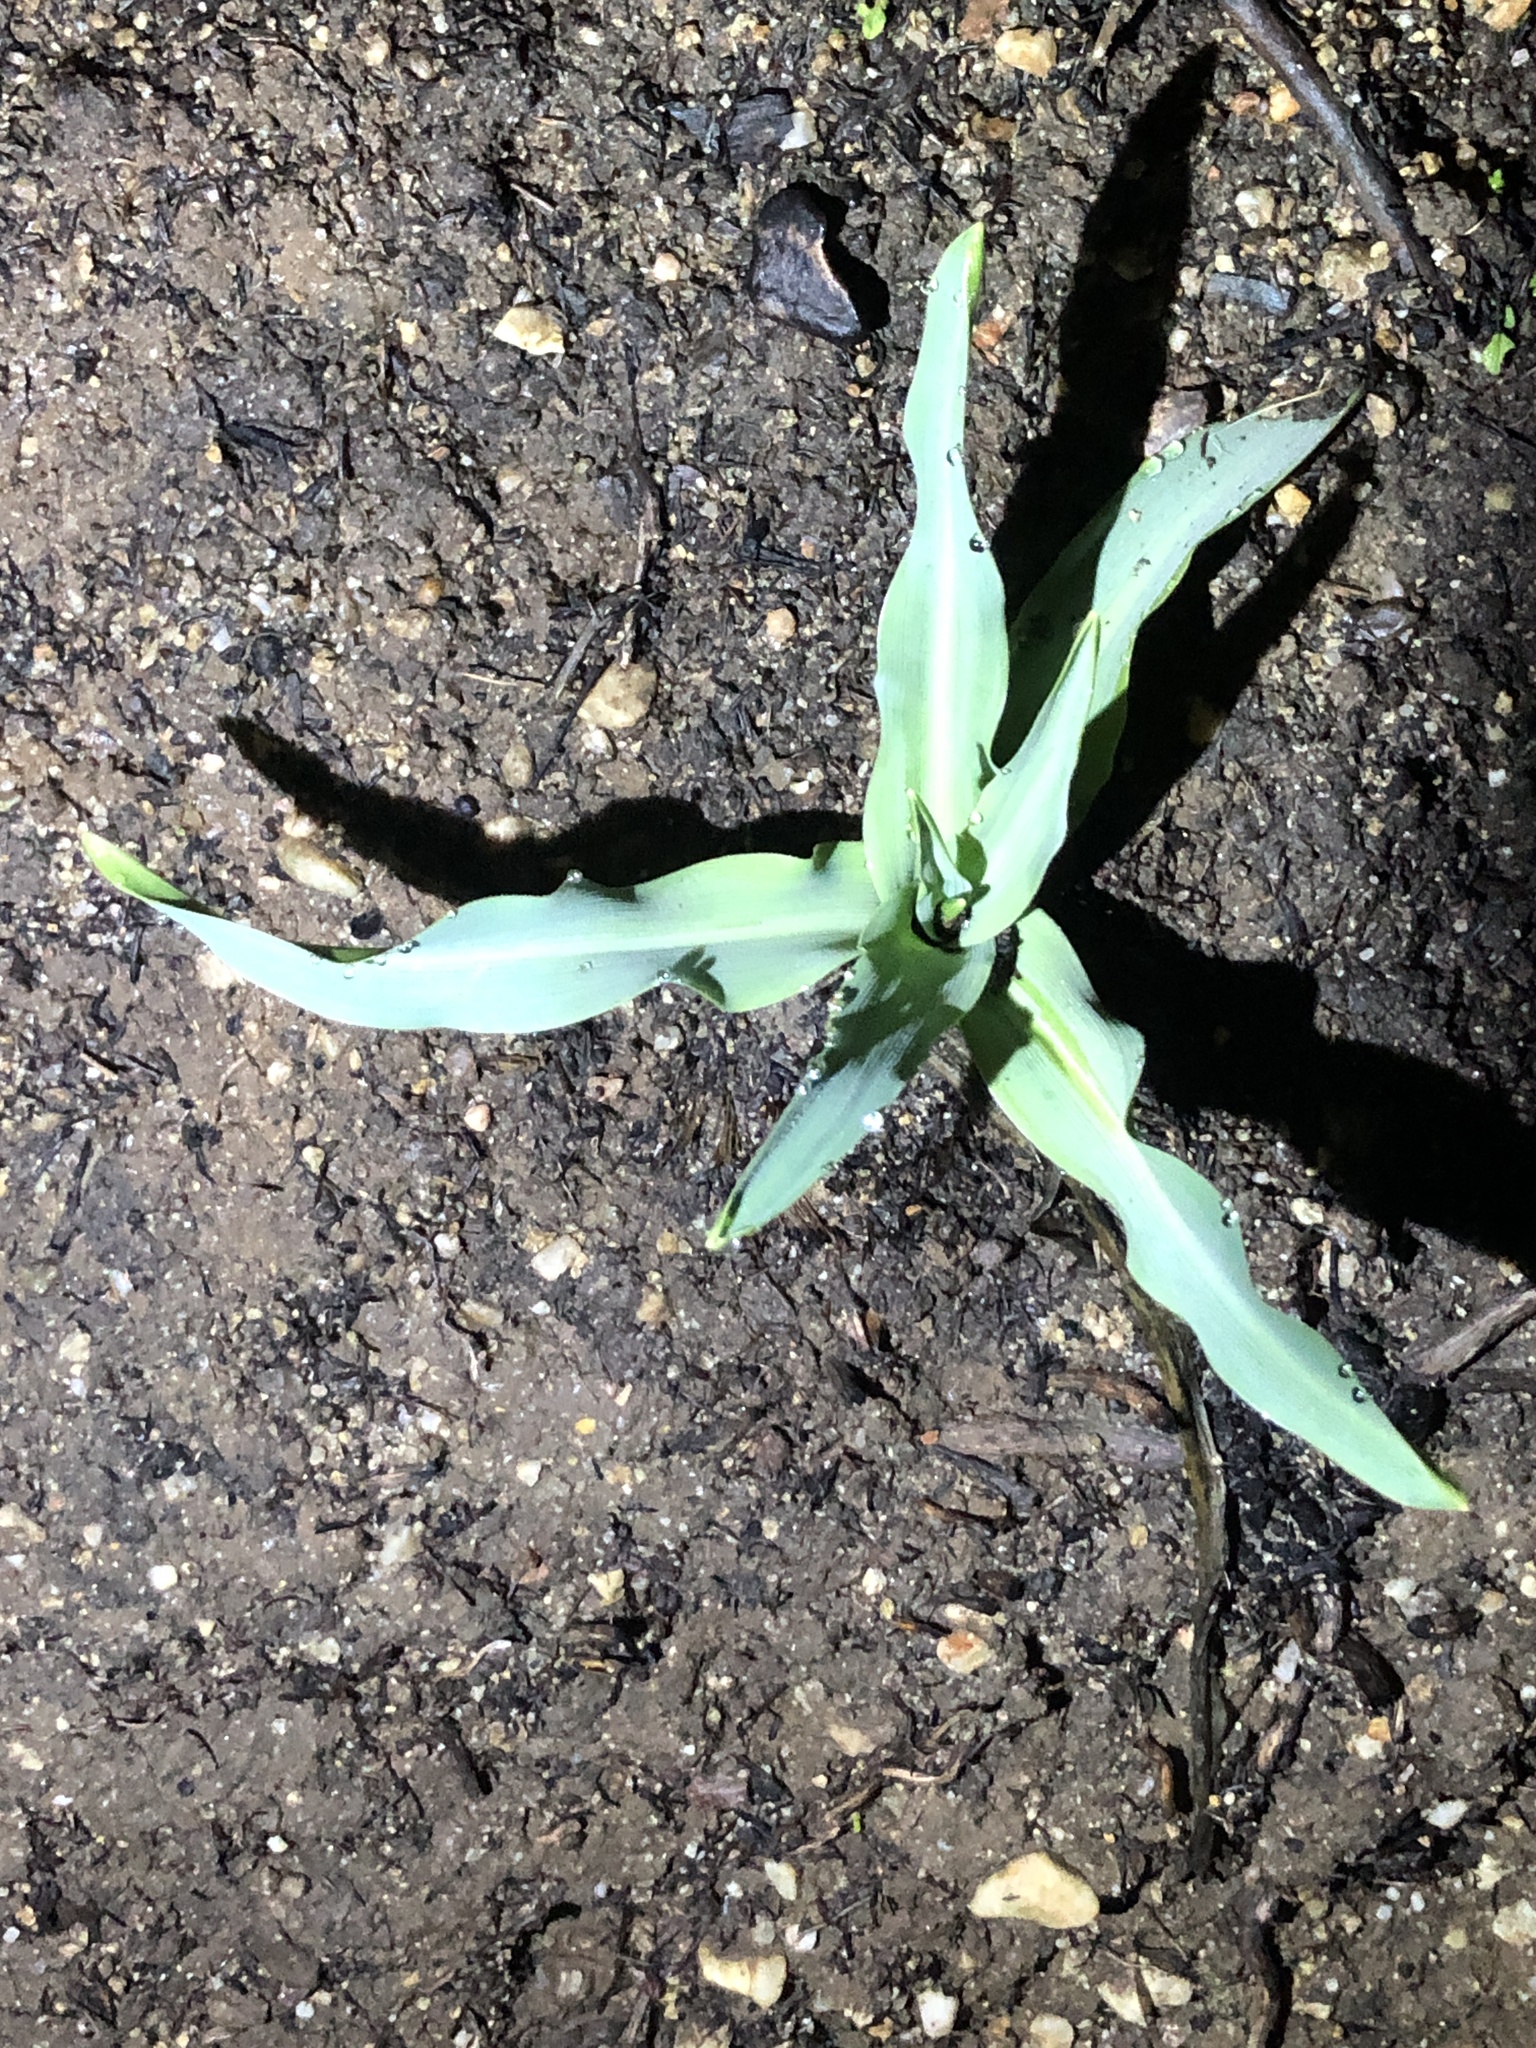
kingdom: Plantae
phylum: Tracheophyta
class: Liliopsida
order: Asparagales
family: Asparagaceae
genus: Chlorogalum
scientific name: Chlorogalum pomeridianum
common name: Amole
